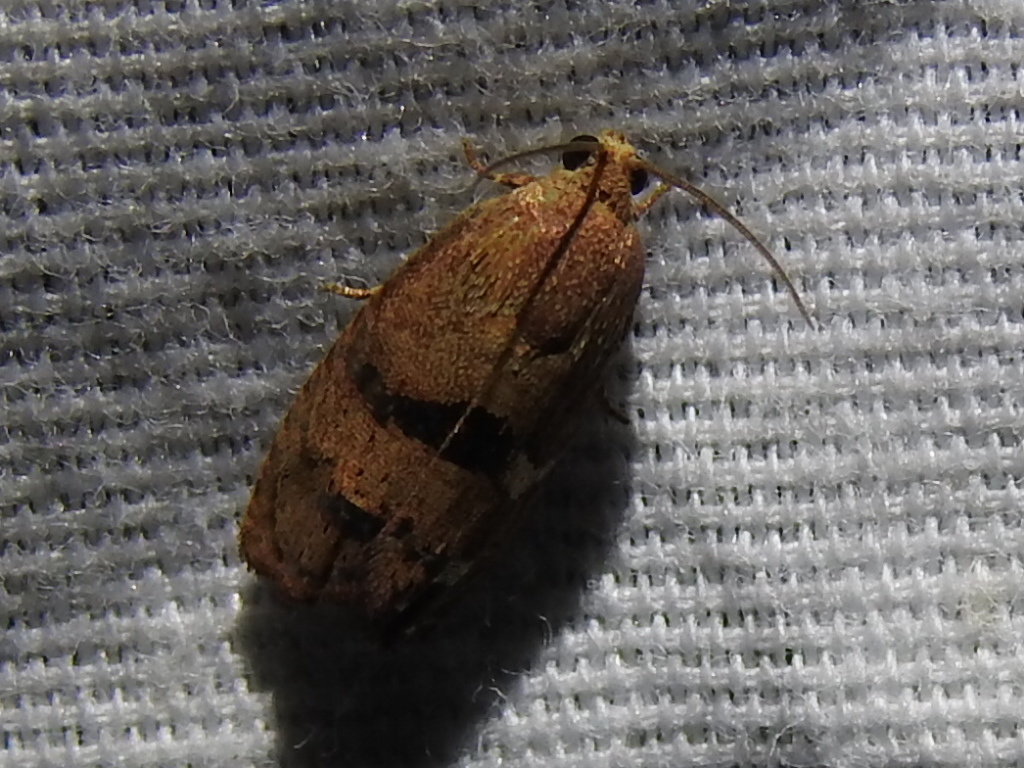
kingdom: Animalia
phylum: Arthropoda
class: Insecta
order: Lepidoptera
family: Tortricidae
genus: Cydia
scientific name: Cydia latiferreana
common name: Filbertworm moth
